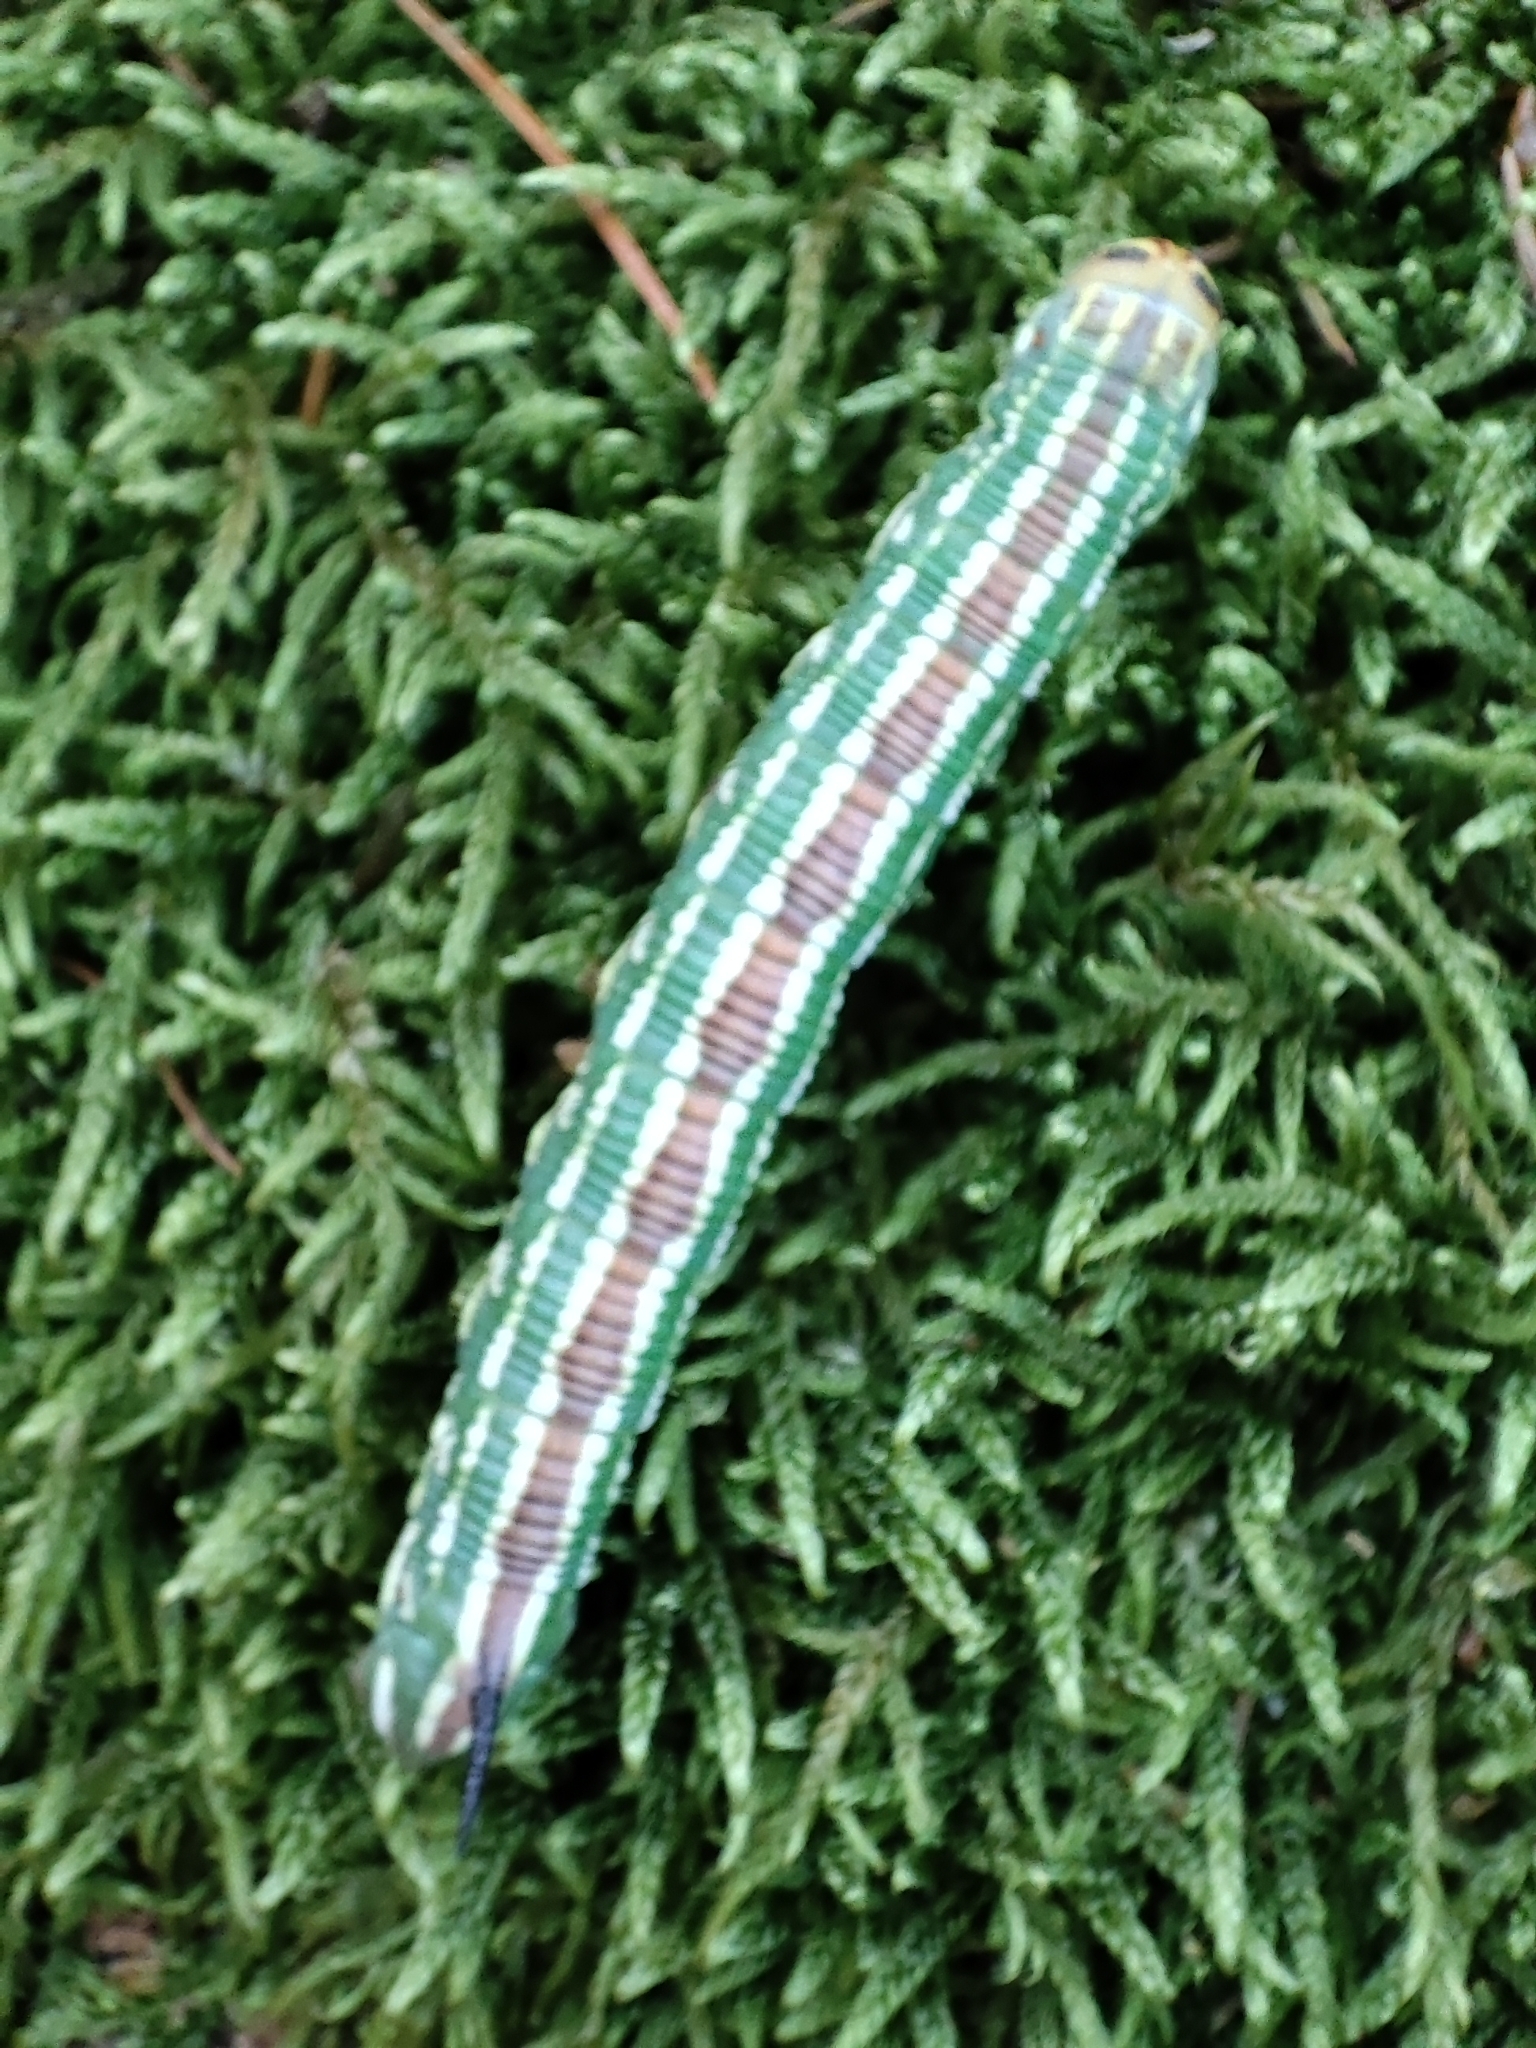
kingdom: Animalia
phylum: Arthropoda
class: Insecta
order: Lepidoptera
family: Sphingidae
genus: Sphinx
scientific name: Sphinx pinastri
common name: Pine hawk-moth
